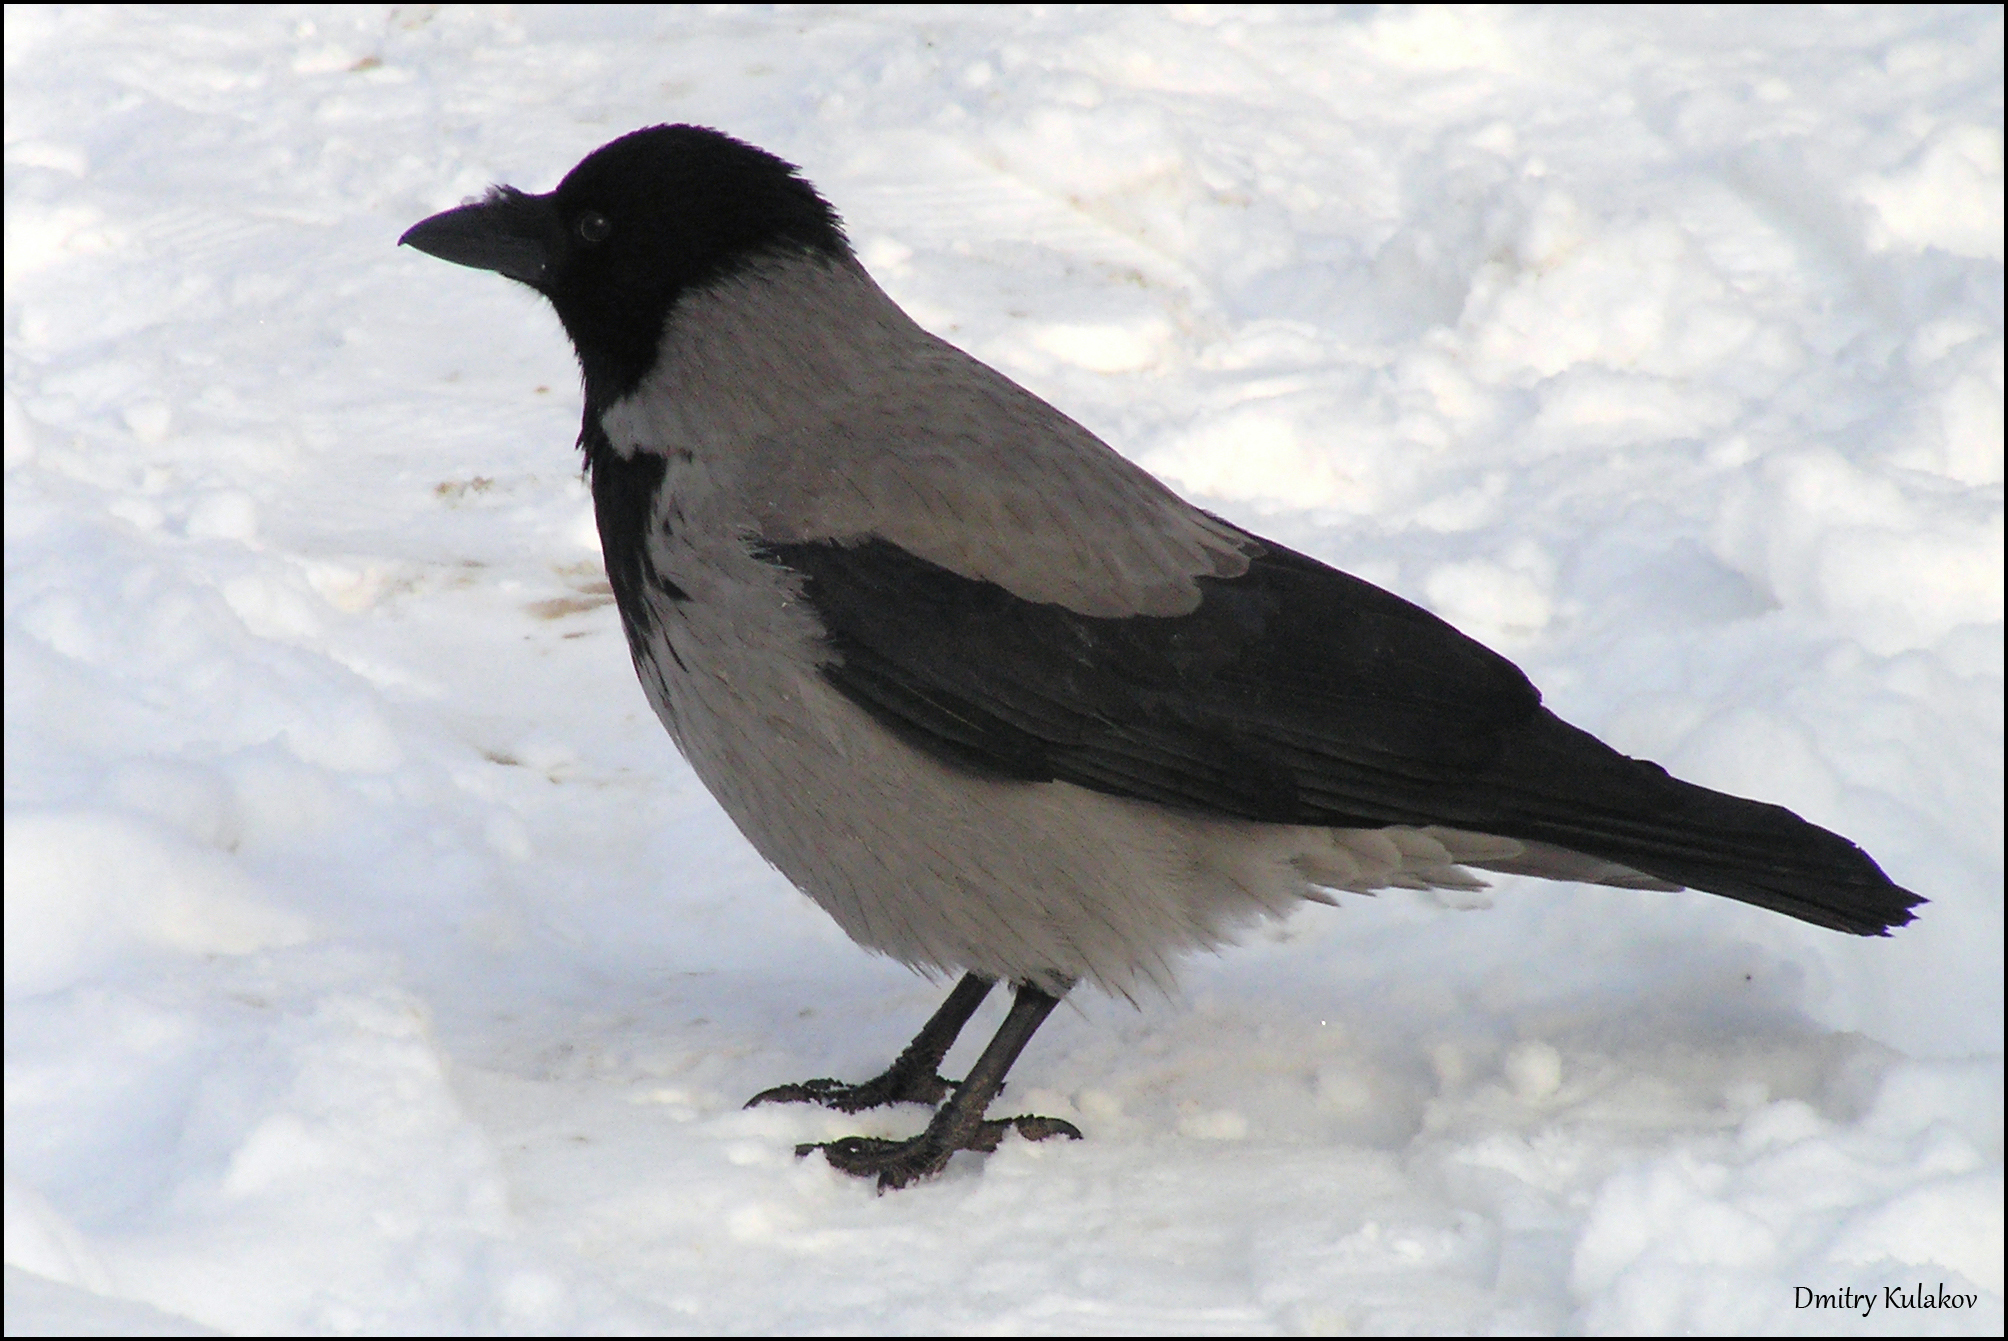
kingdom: Animalia
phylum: Chordata
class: Aves
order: Passeriformes
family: Corvidae
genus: Corvus
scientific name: Corvus cornix
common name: Hooded crow
